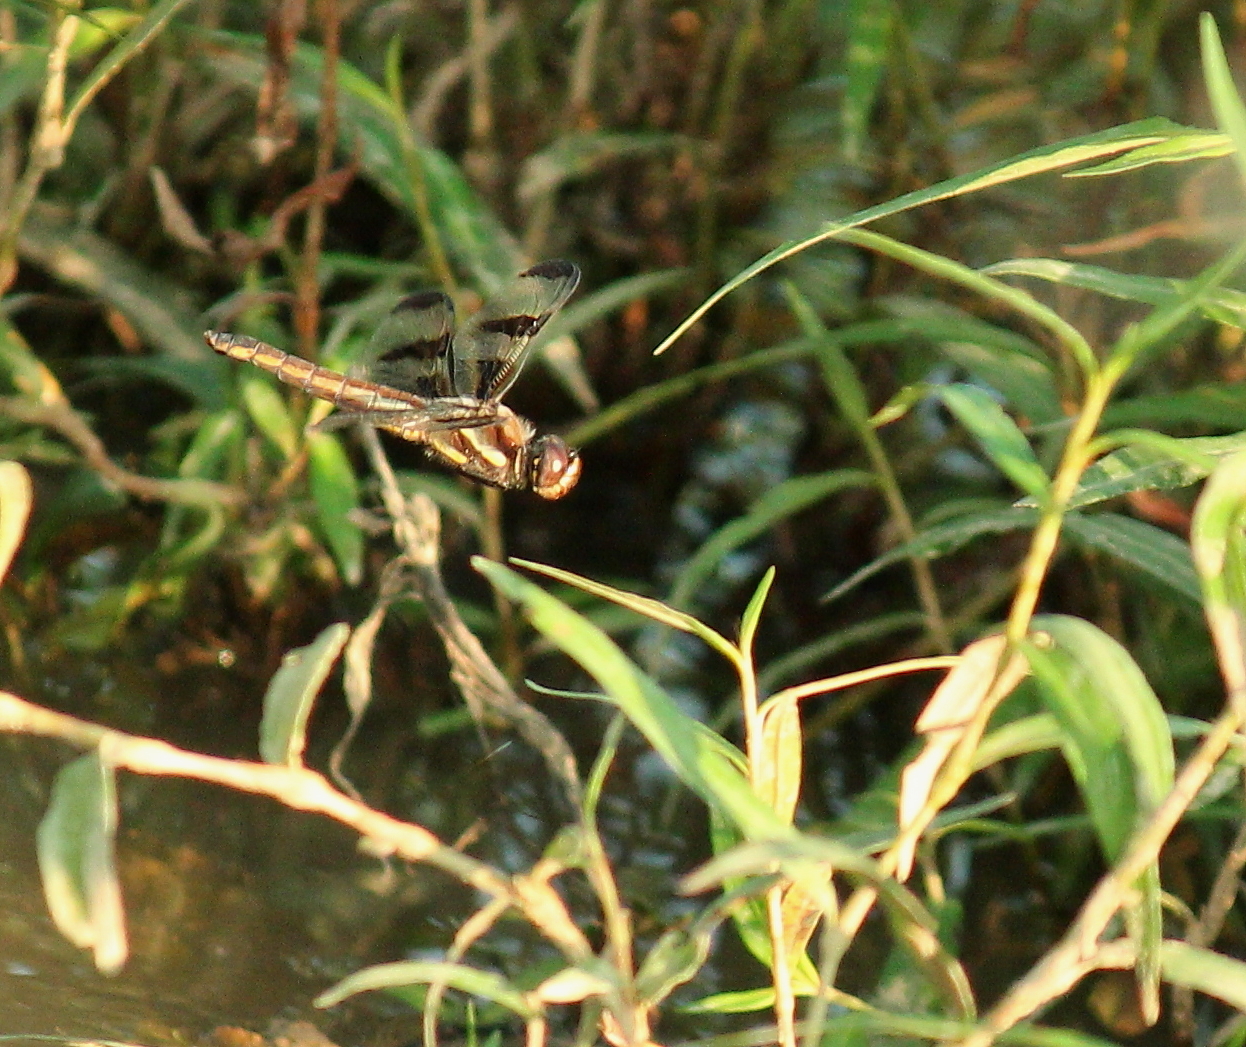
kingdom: Animalia
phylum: Arthropoda
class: Insecta
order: Odonata
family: Libellulidae
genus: Libellula
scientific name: Libellula pulchella
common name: Twelve-spotted skimmer
